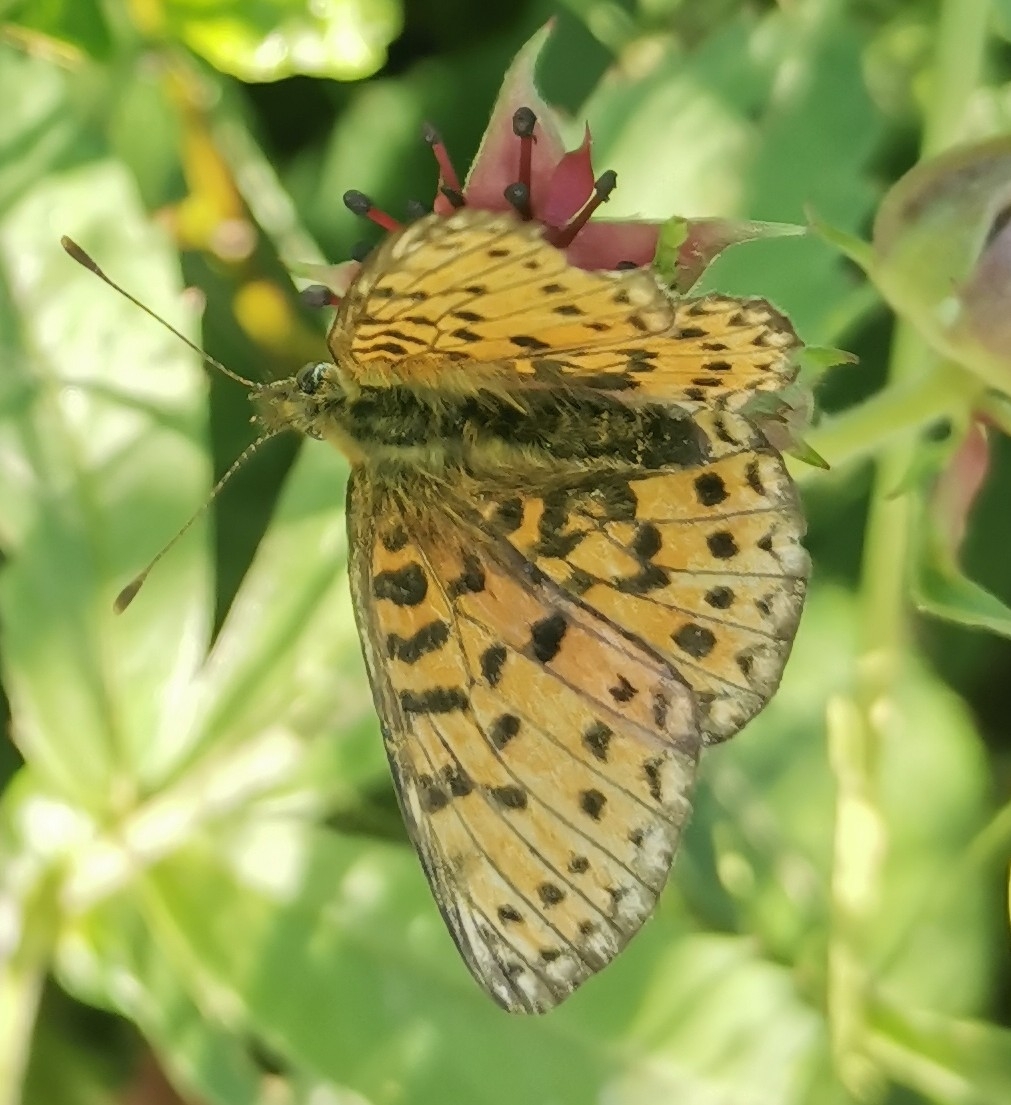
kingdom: Animalia
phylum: Arthropoda
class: Insecta
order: Lepidoptera
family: Nymphalidae
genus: Boloria
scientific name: Boloria selene
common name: Small pearl-bordered fritillary
